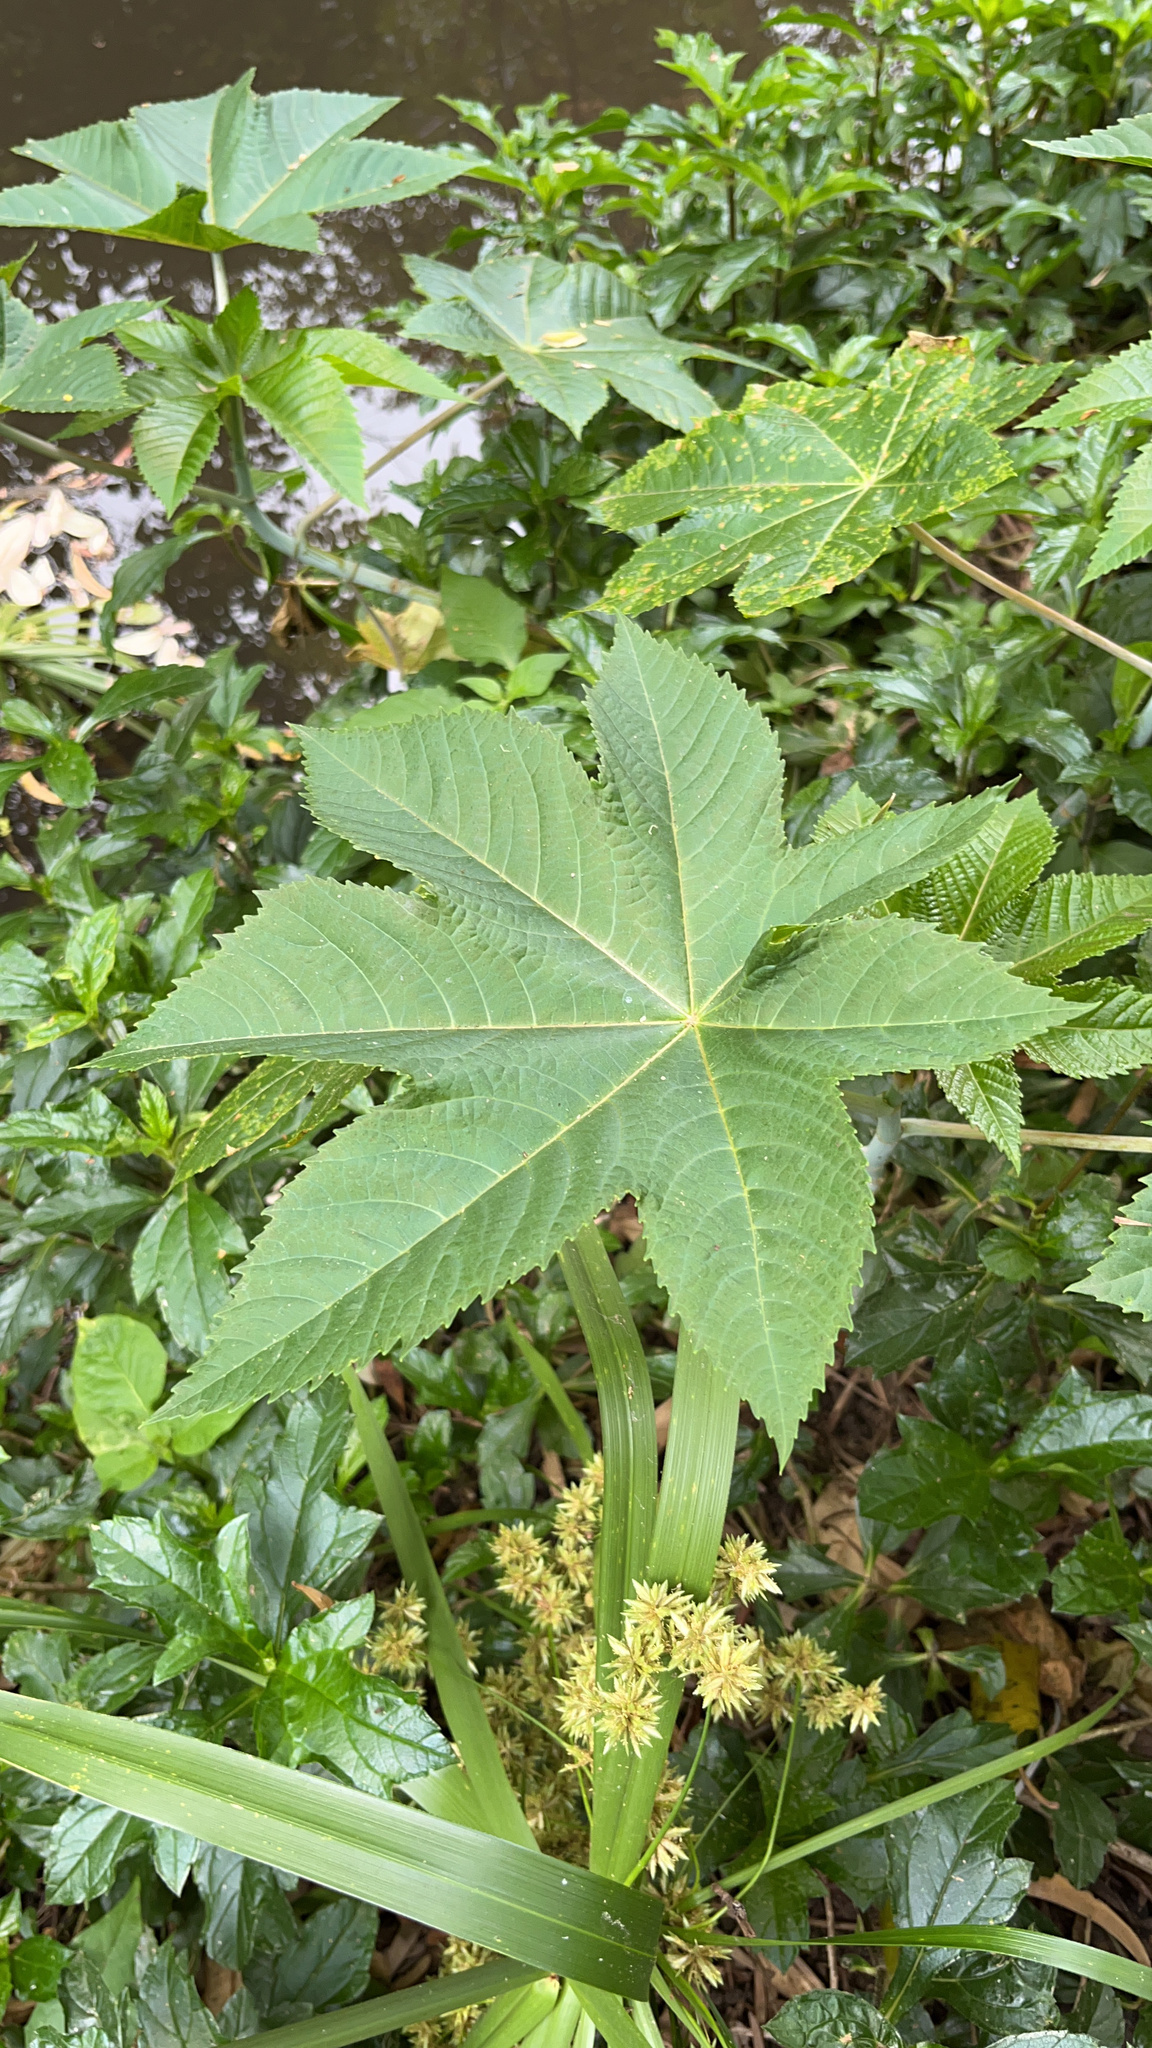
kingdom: Plantae
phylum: Tracheophyta
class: Magnoliopsida
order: Malpighiales
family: Euphorbiaceae
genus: Ricinus
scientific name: Ricinus communis
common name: Castor-oil-plant
